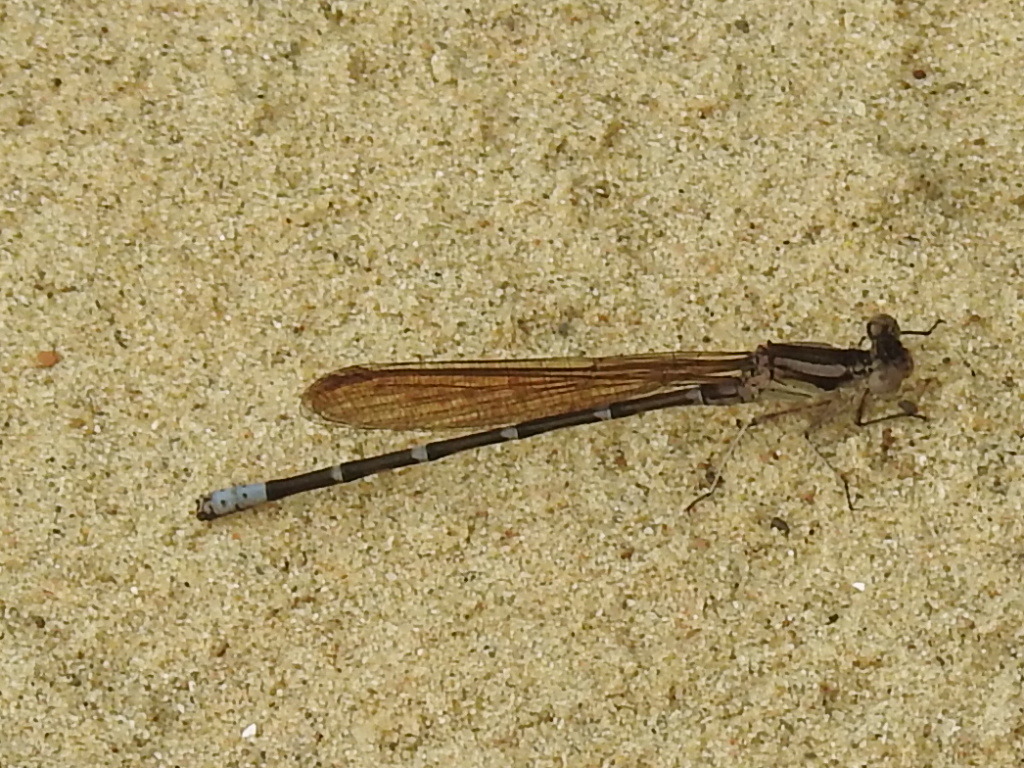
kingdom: Animalia
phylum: Arthropoda
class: Insecta
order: Odonata
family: Coenagrionidae
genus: Argia
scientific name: Argia sedula
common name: Blue-ringed dancer
